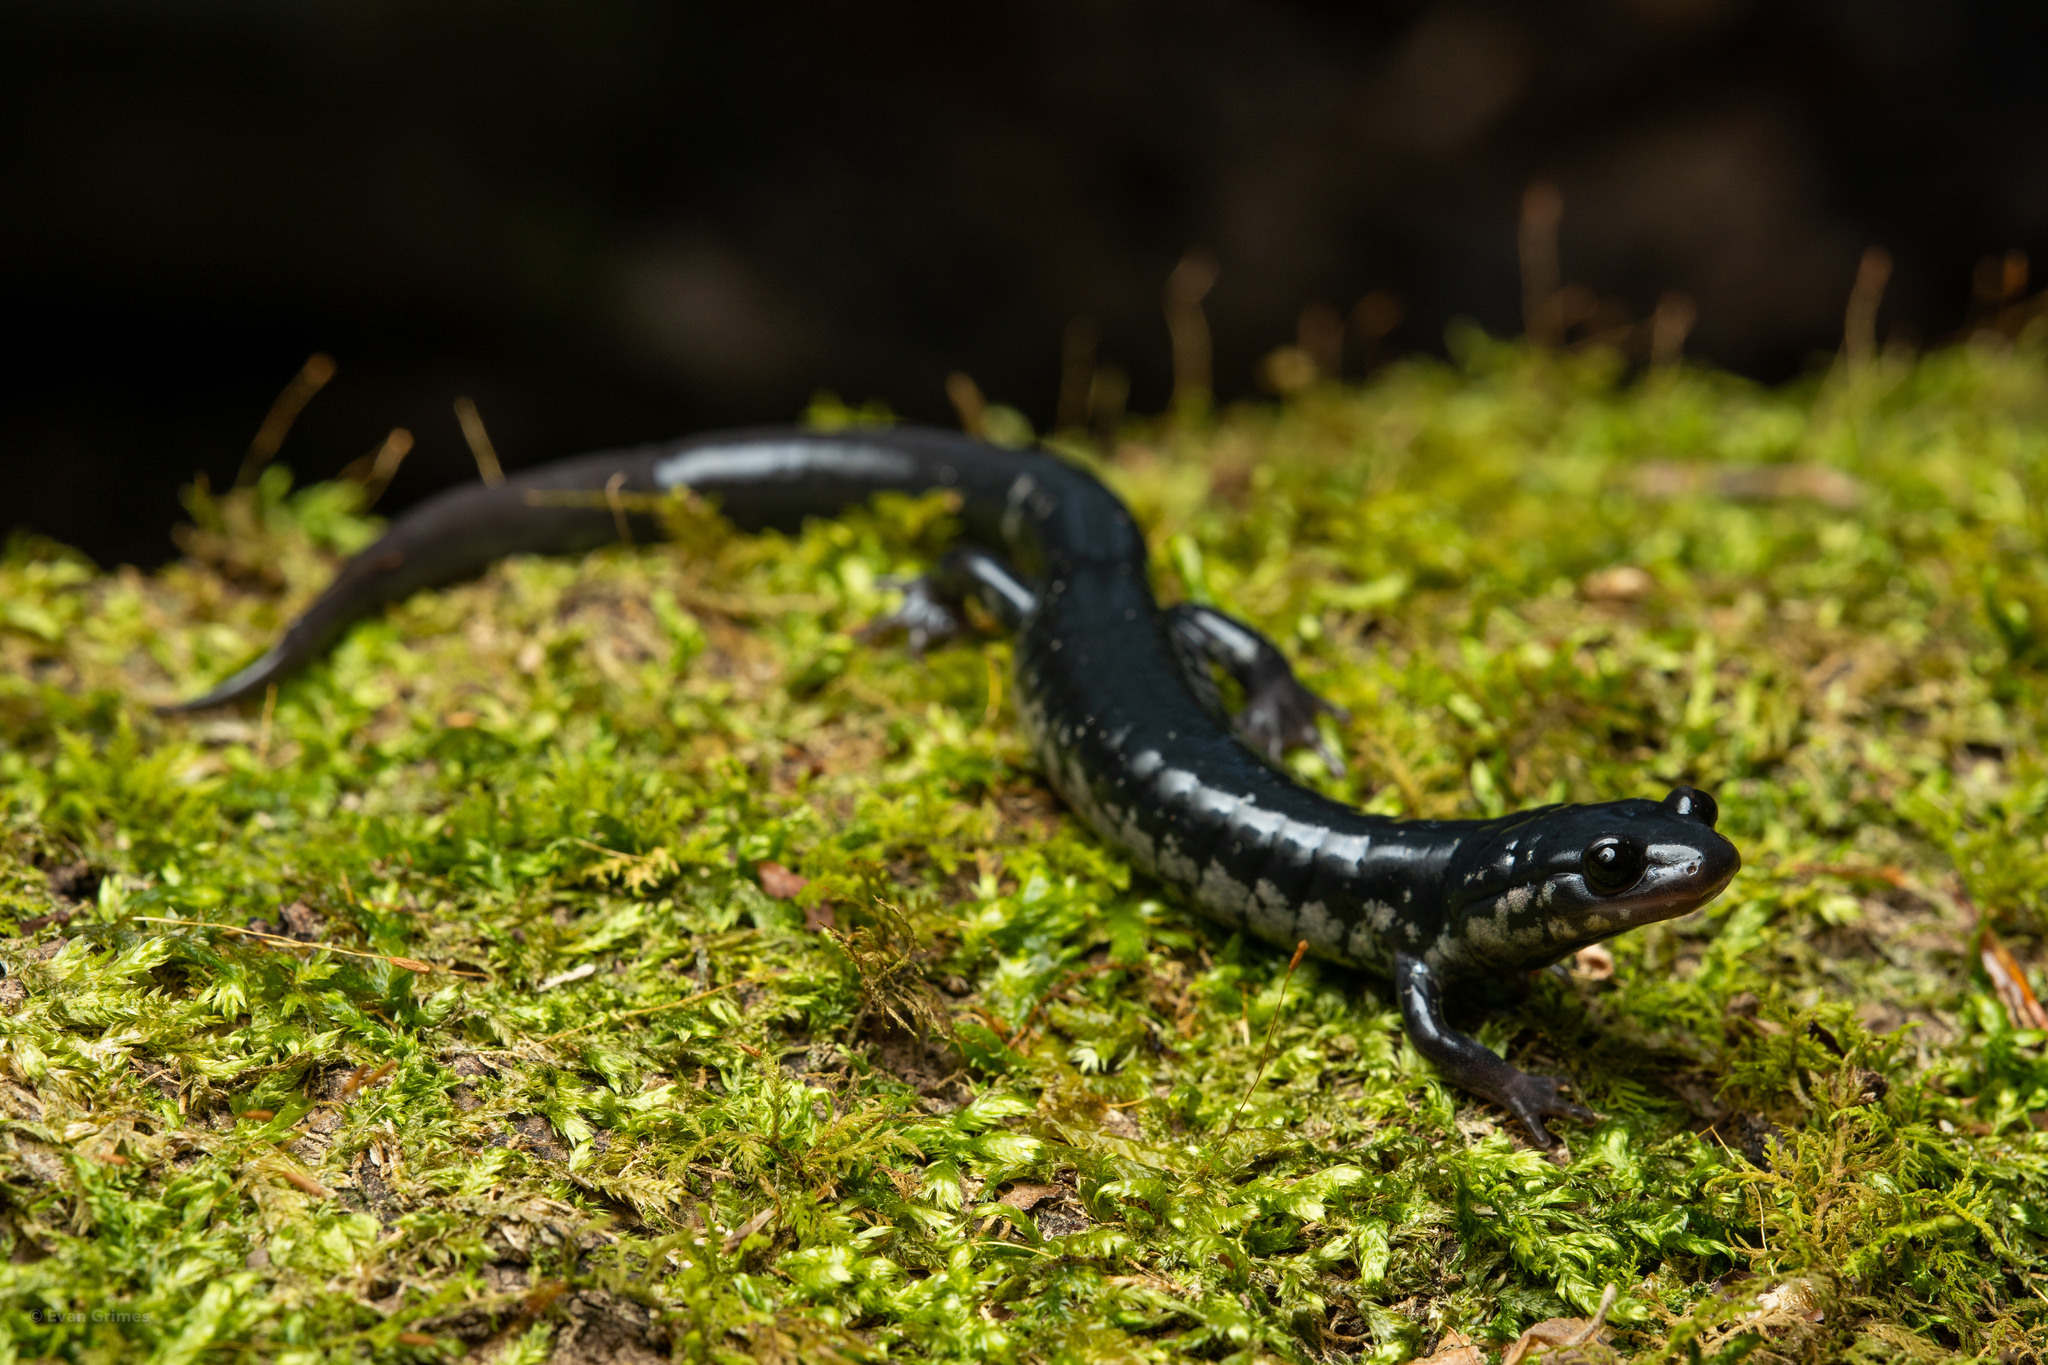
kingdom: Animalia
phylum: Chordata
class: Amphibia
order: Caudata
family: Plethodontidae
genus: Plethodon
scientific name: Plethodon chlorobryonis
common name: Atlantic coast slimy salamander
